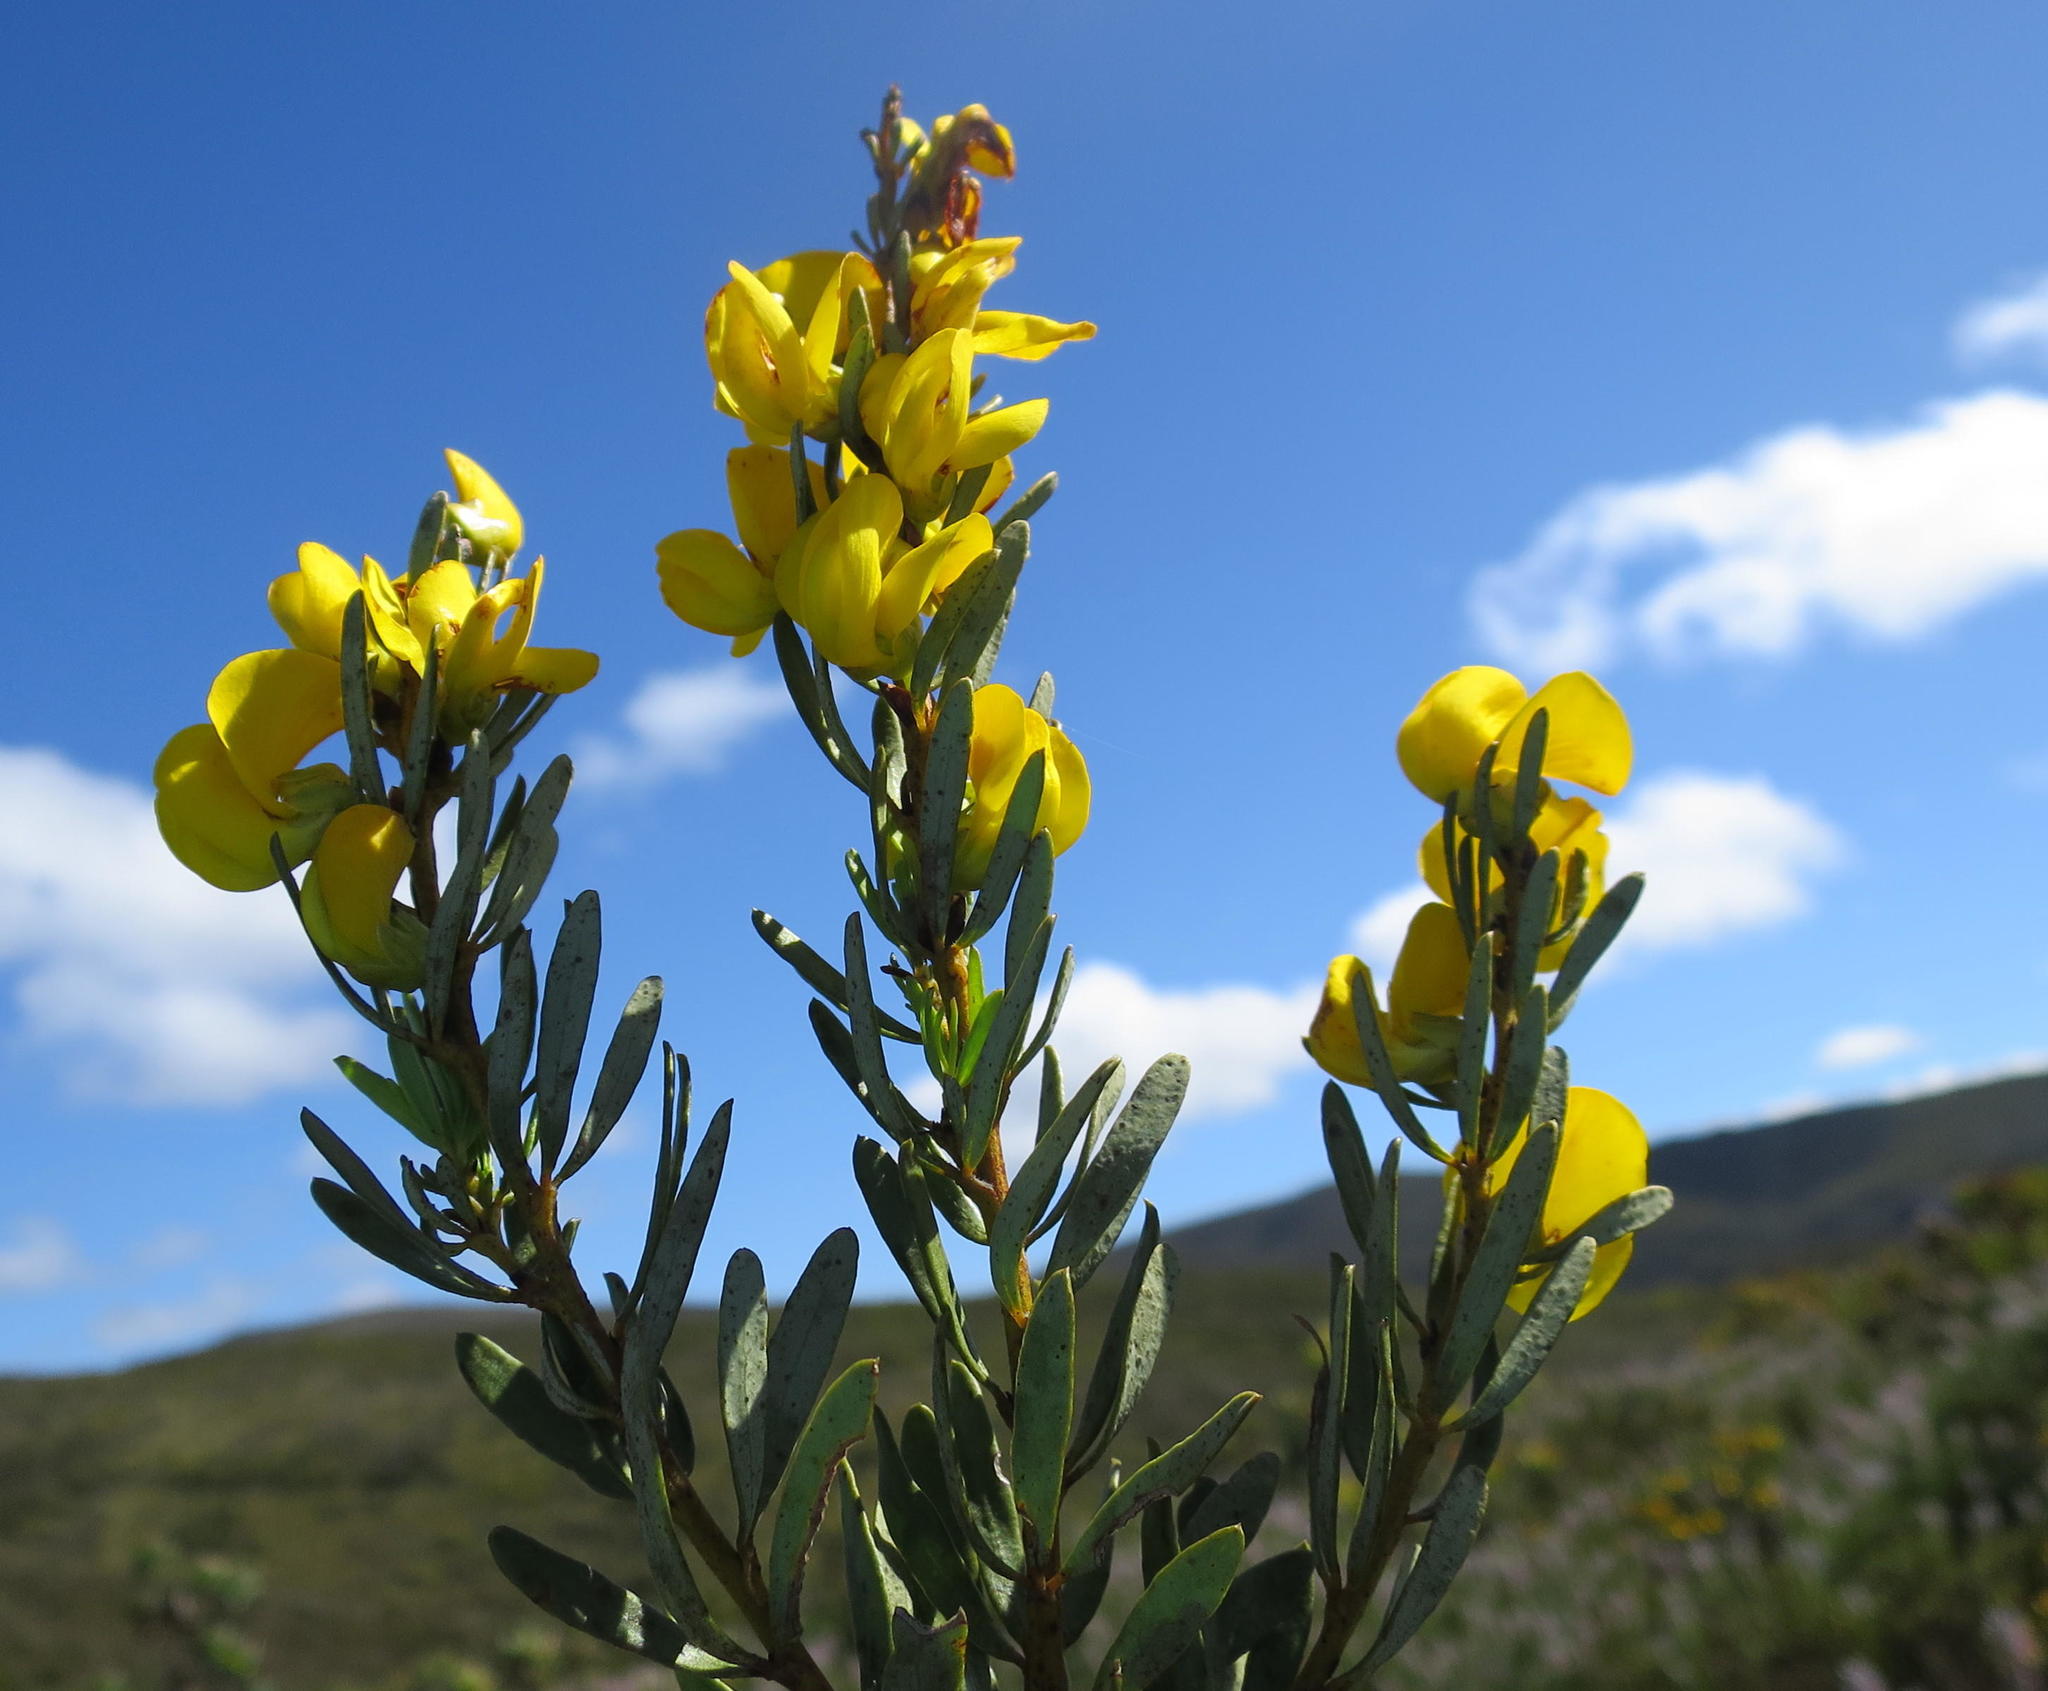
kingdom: Plantae
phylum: Tracheophyta
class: Magnoliopsida
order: Fabales
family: Fabaceae
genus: Cyclopia
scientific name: Cyclopia intermedia
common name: Mountain tea
